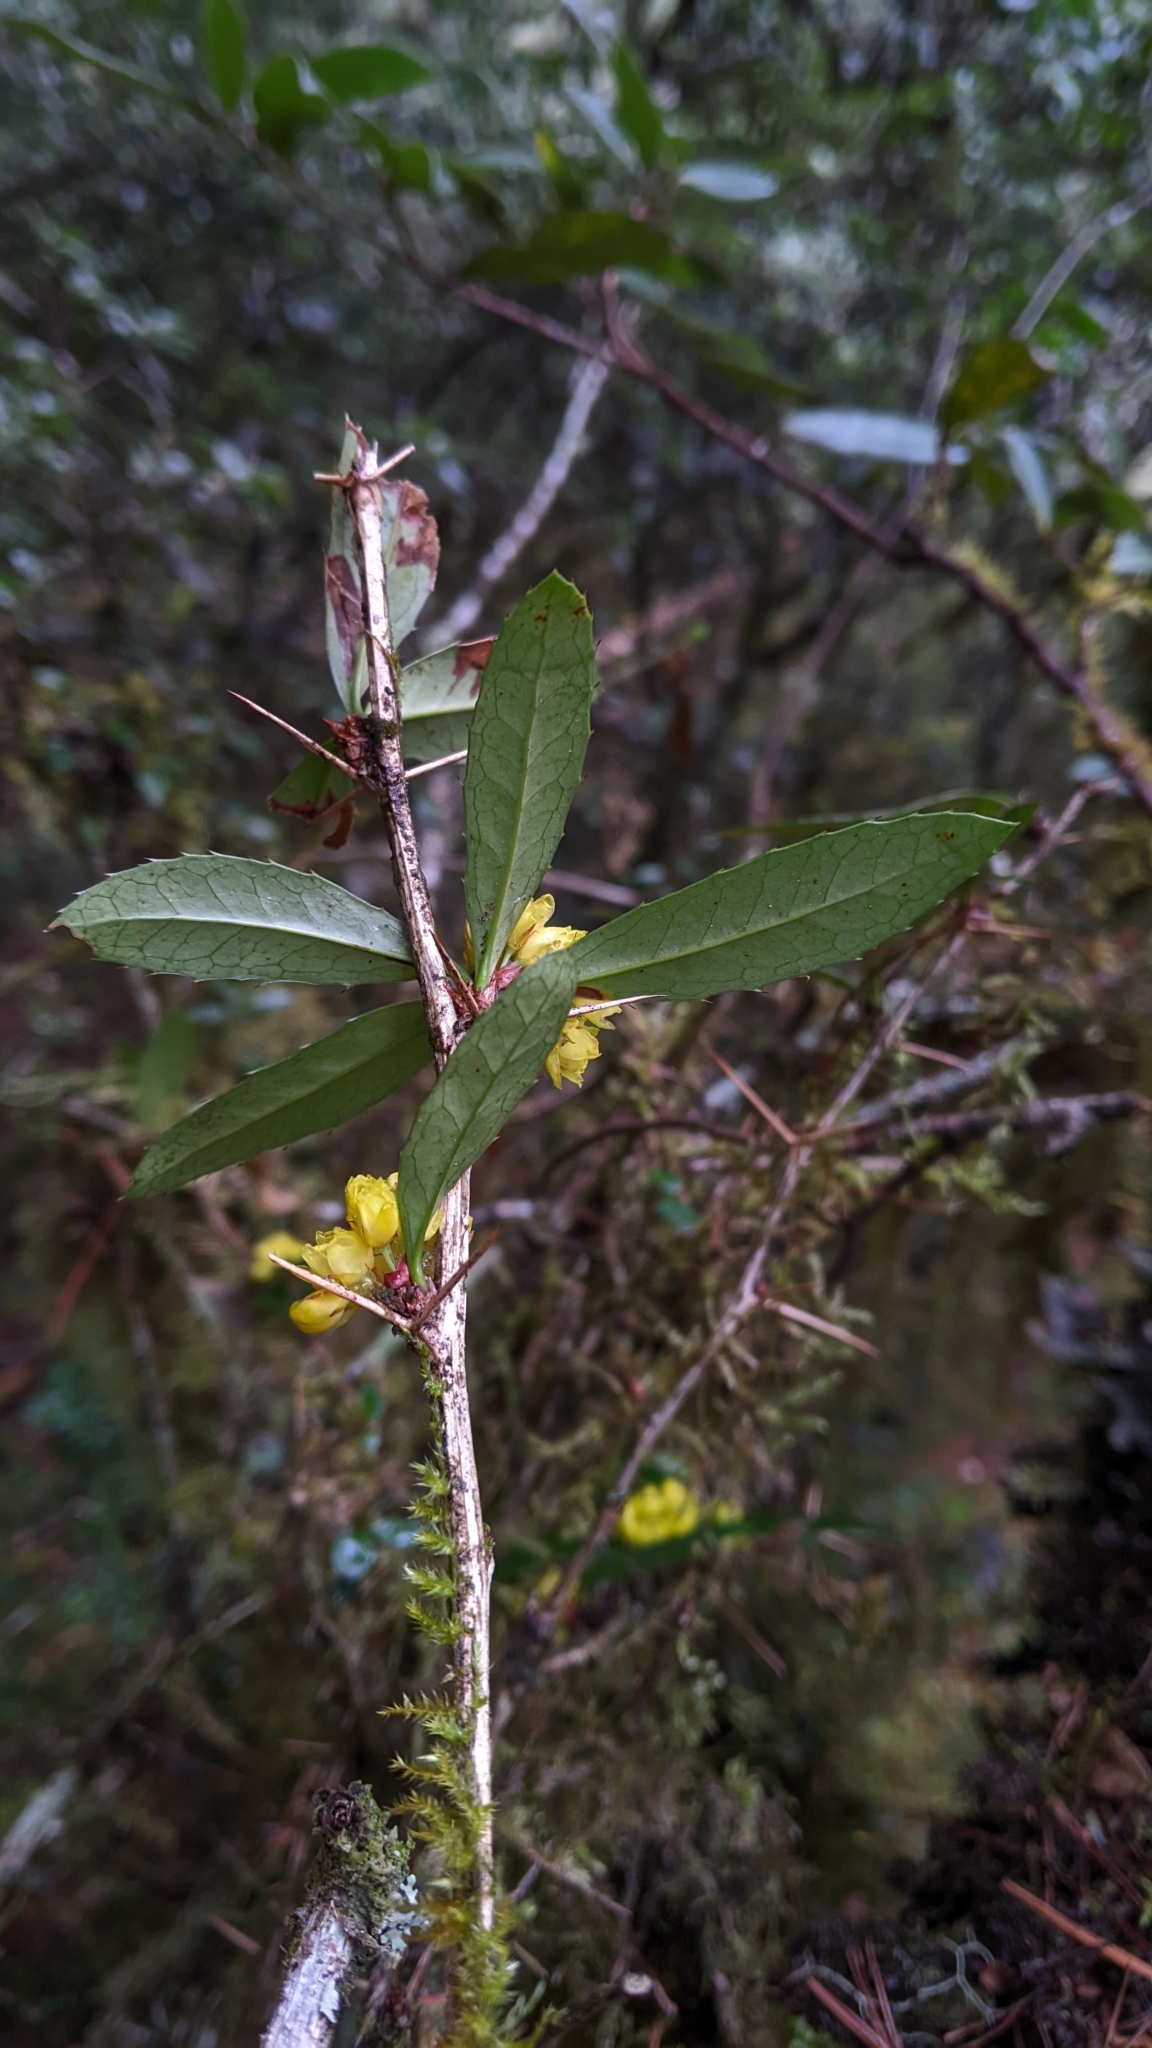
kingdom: Plantae
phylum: Tracheophyta
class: Magnoliopsida
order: Ranunculales
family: Berberidaceae
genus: Berberis
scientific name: Berberis kawakamii
